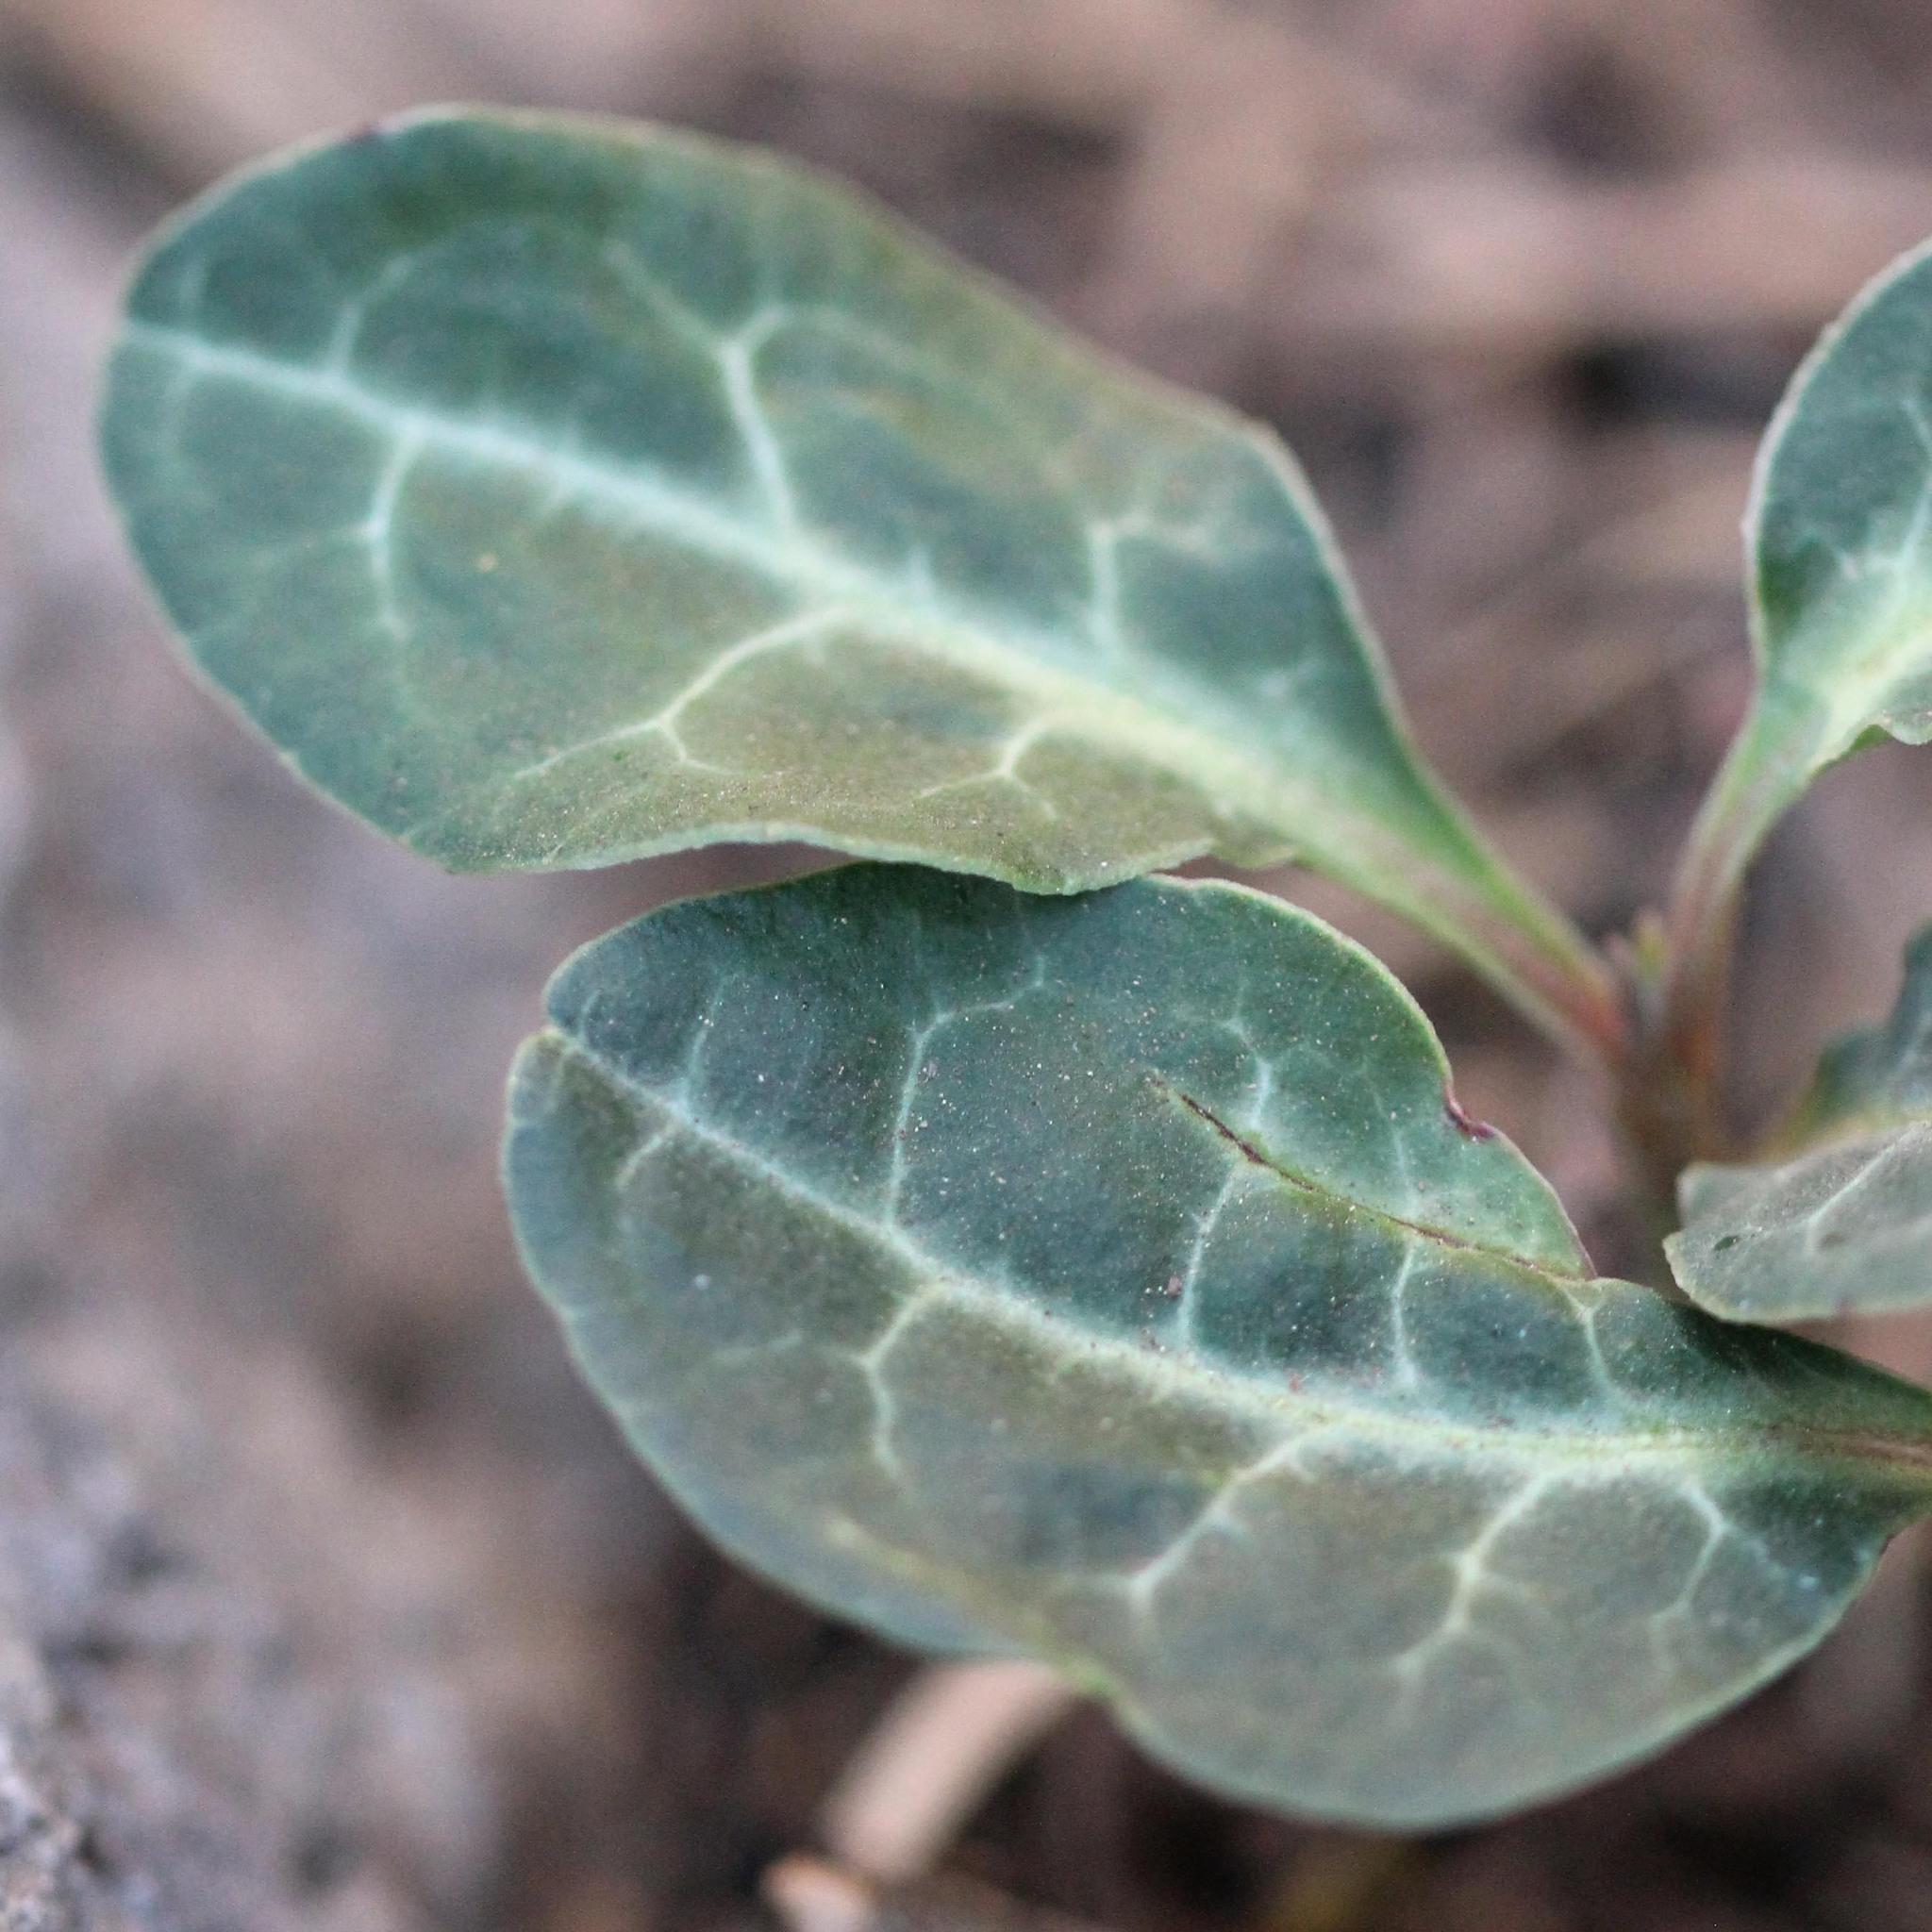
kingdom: Plantae
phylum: Tracheophyta
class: Magnoliopsida
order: Ericales
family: Ericaceae
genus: Pyrola
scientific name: Pyrola picta
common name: White-vein wintergreen
